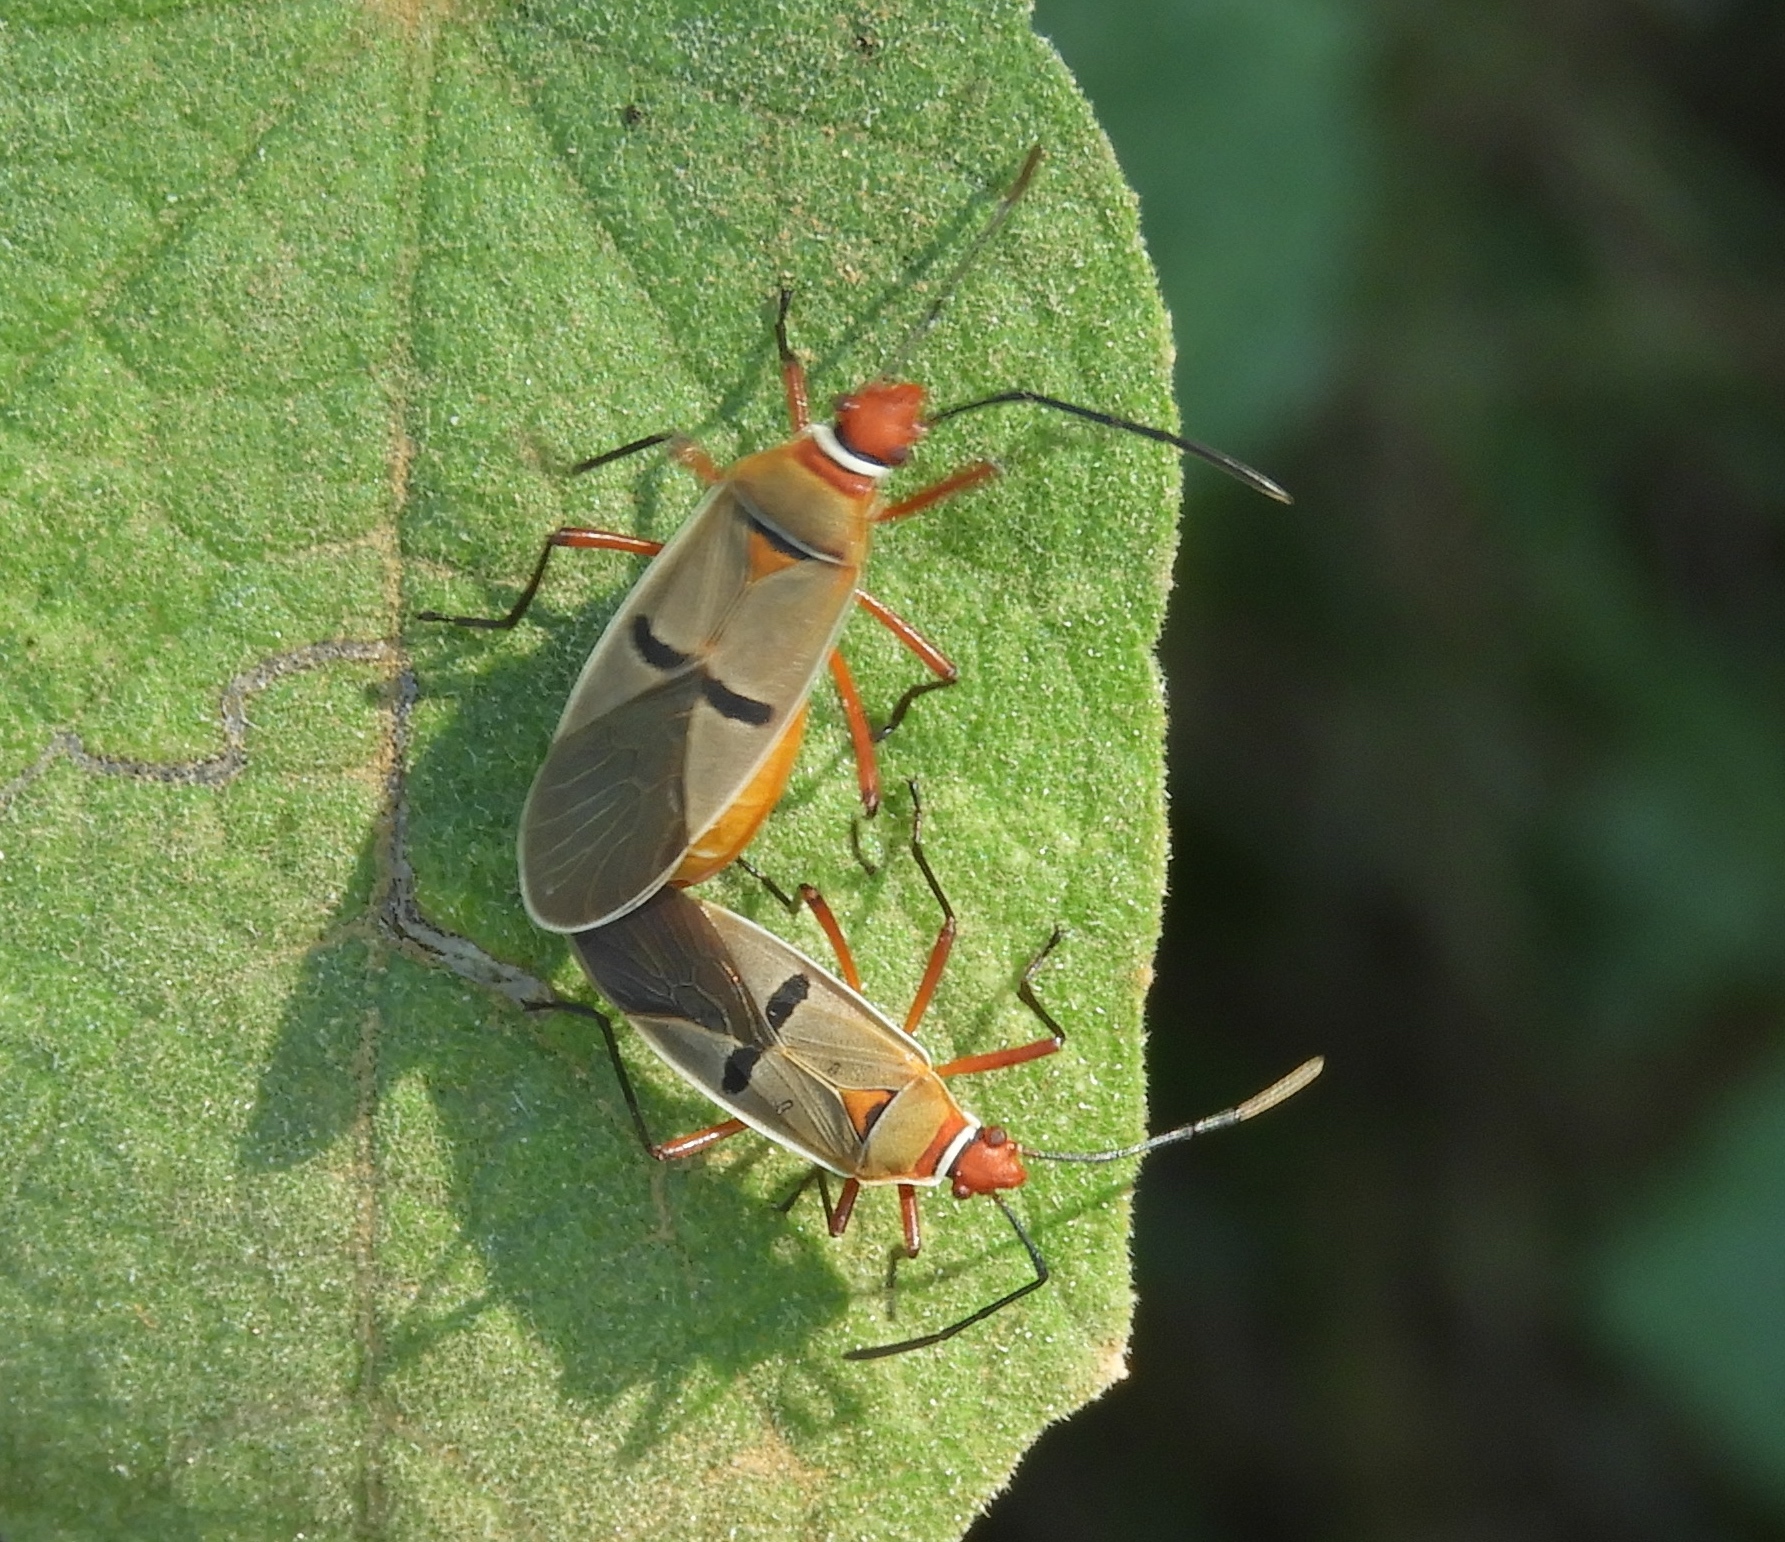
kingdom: Animalia
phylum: Arthropoda
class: Insecta
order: Hemiptera
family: Pyrrhocoridae
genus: Dysdercus
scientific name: Dysdercus
